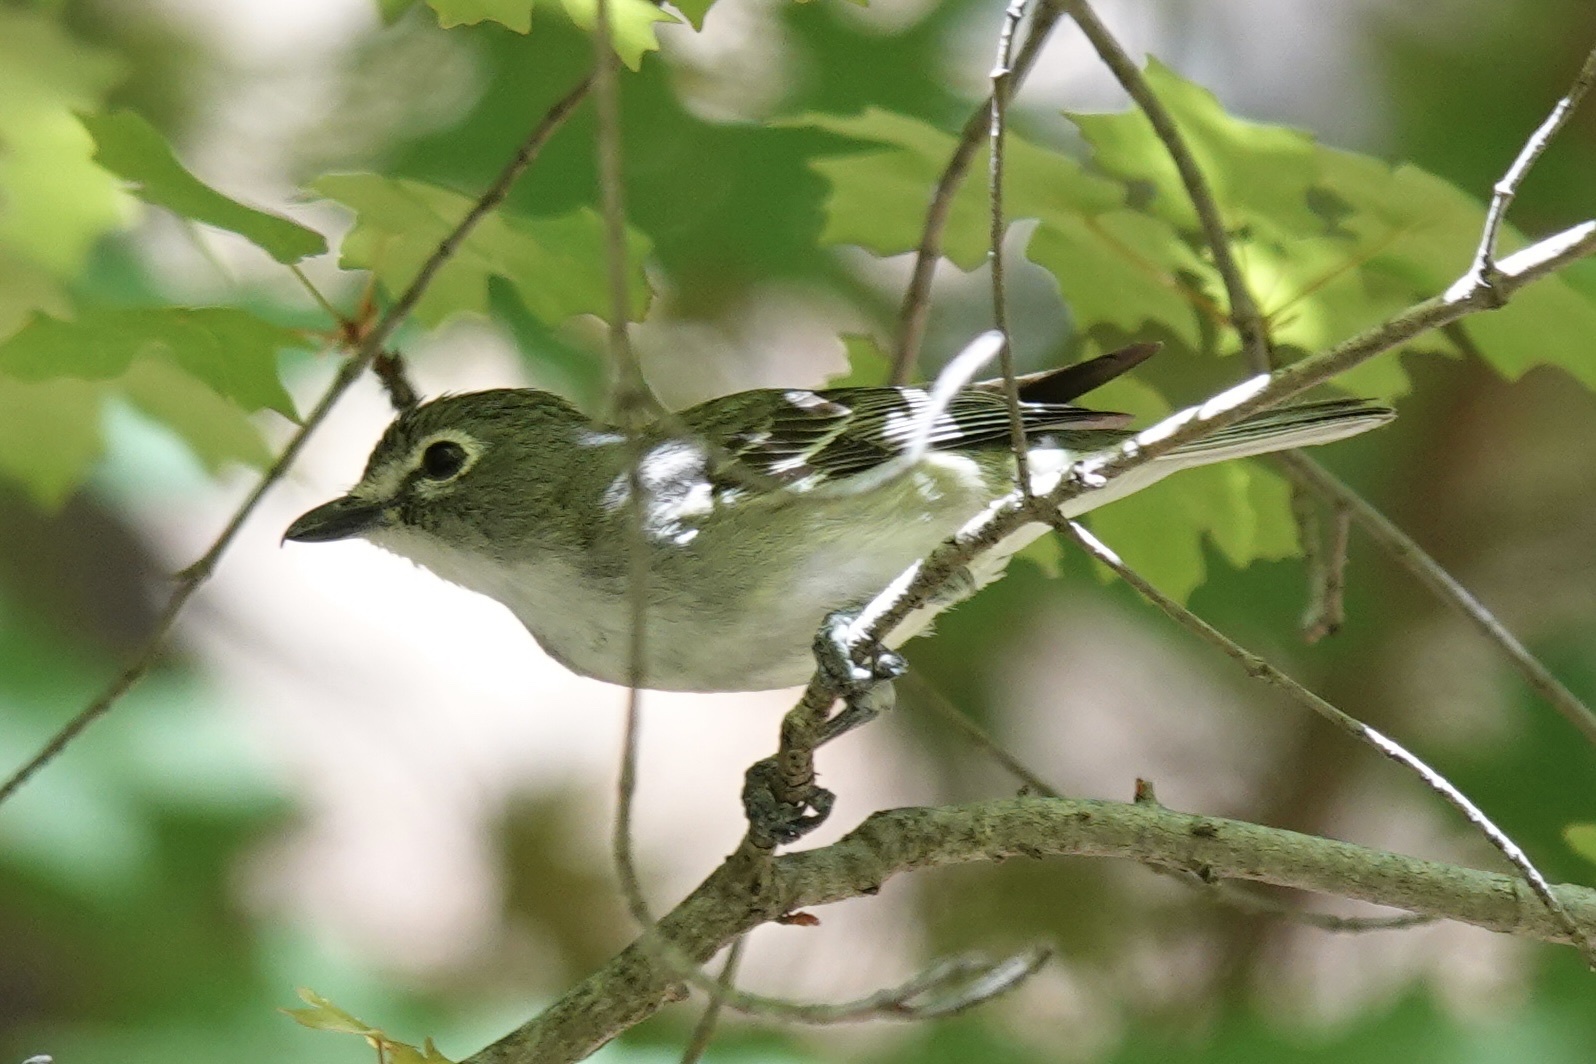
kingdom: Animalia
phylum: Chordata
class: Aves
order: Passeriformes
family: Vireonidae
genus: Vireo
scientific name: Vireo plumbeus
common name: Plumbeous vireo
